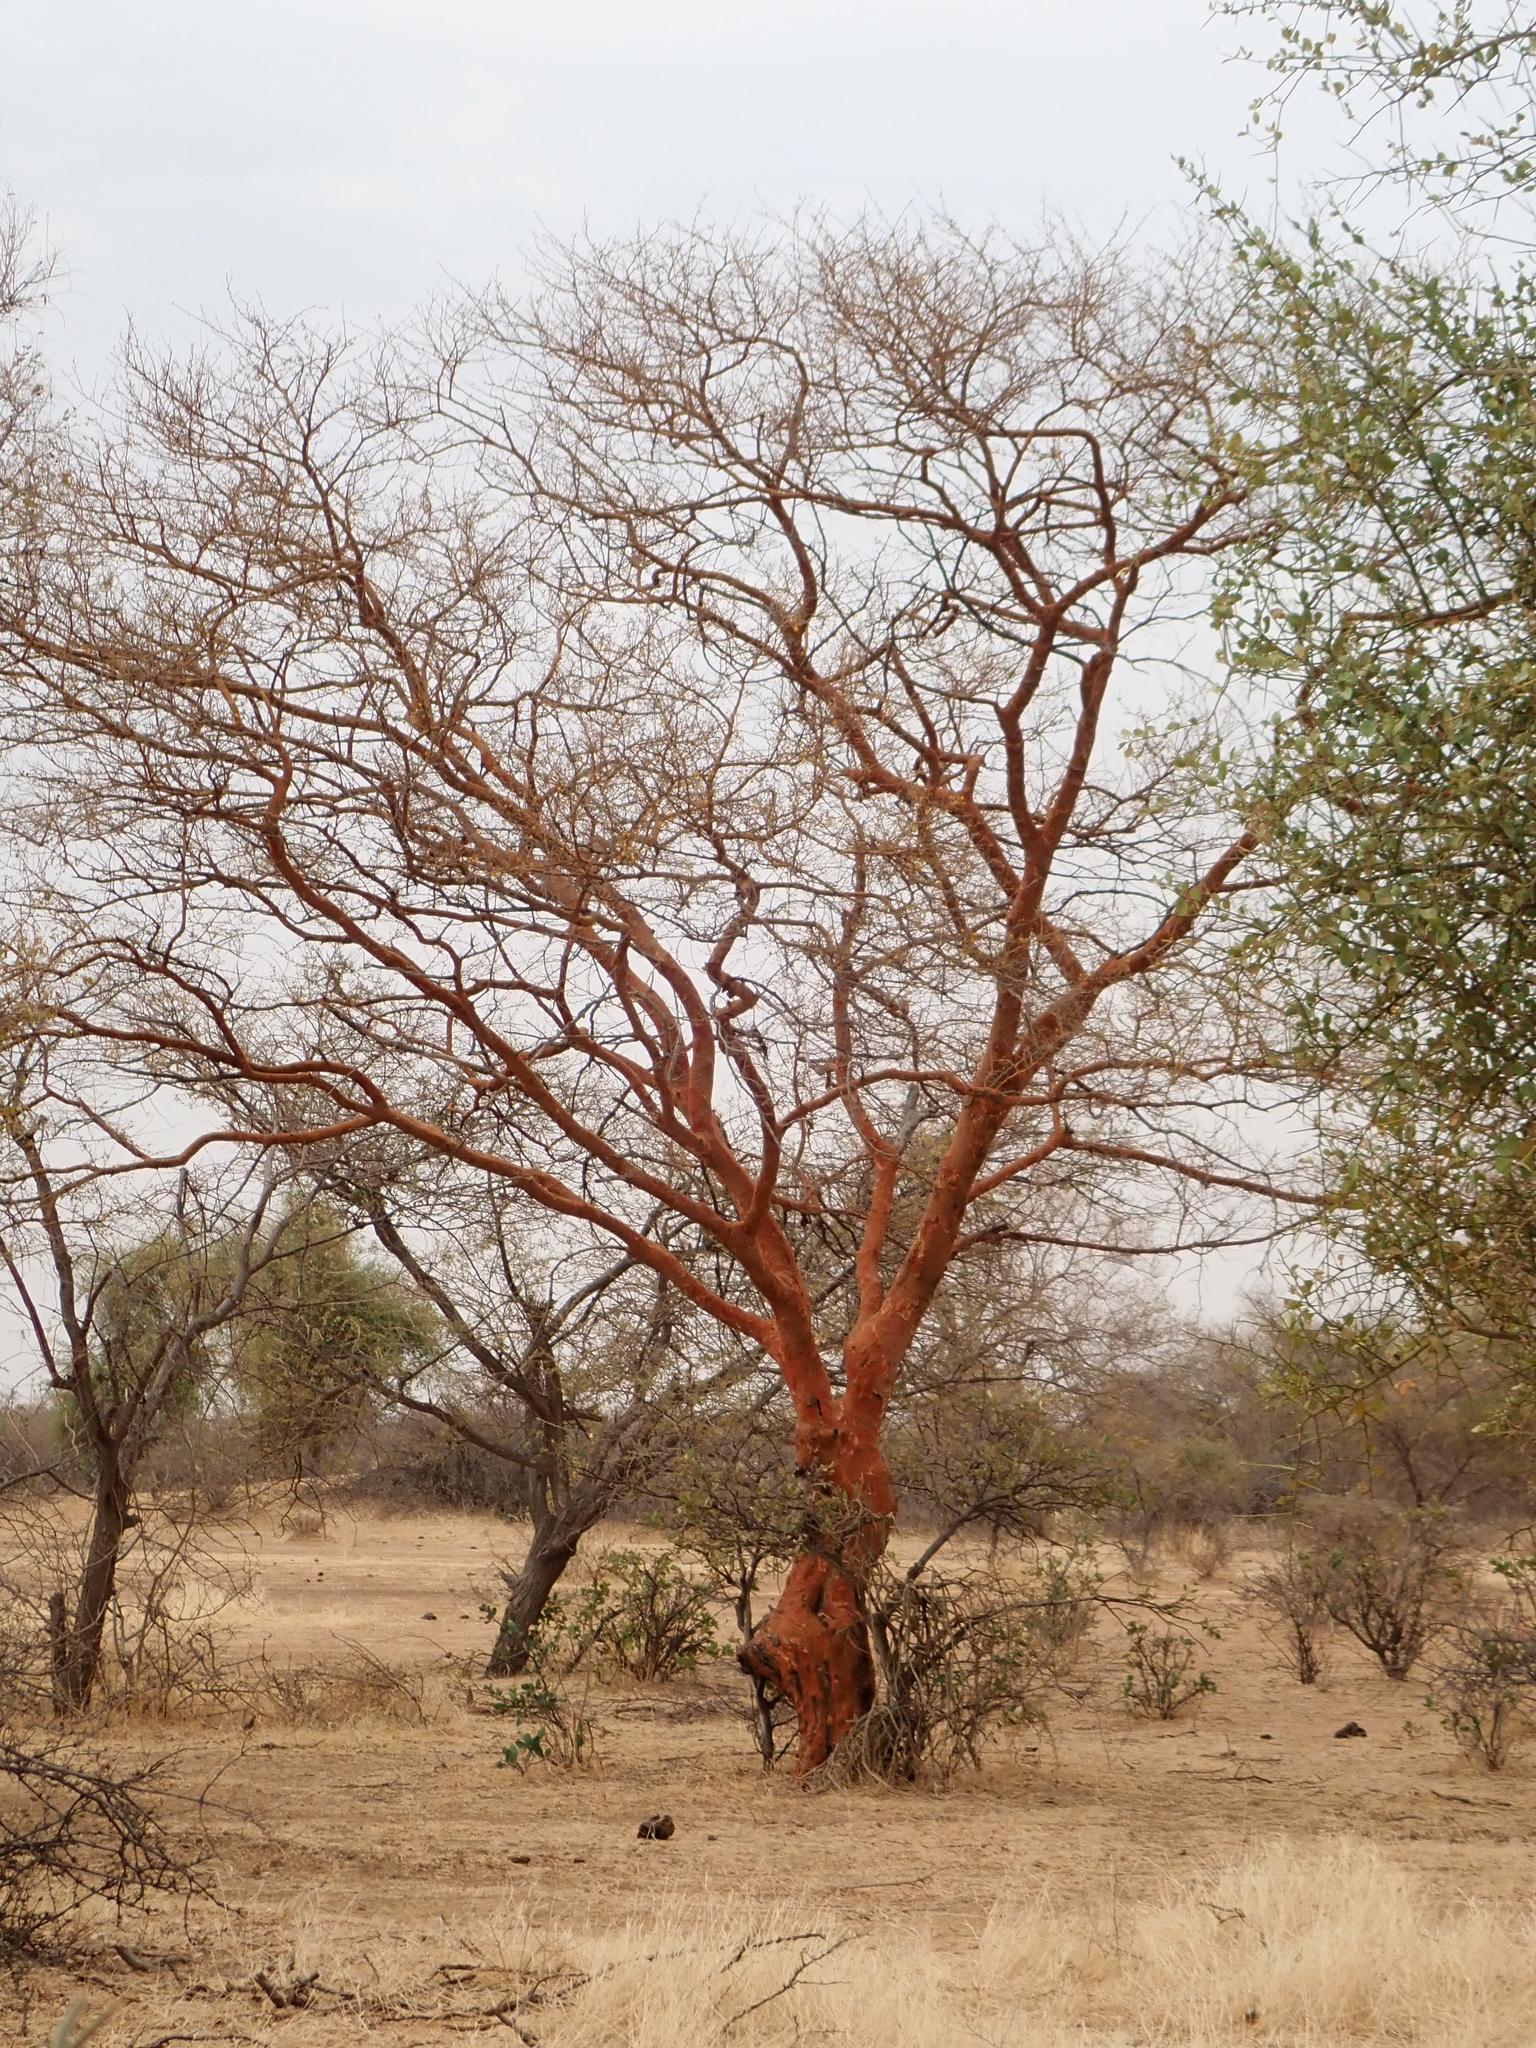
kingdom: Plantae
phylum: Tracheophyta
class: Magnoliopsida
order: Fabales
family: Fabaceae
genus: Vachellia
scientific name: Vachellia seyal
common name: Thirtythorn
